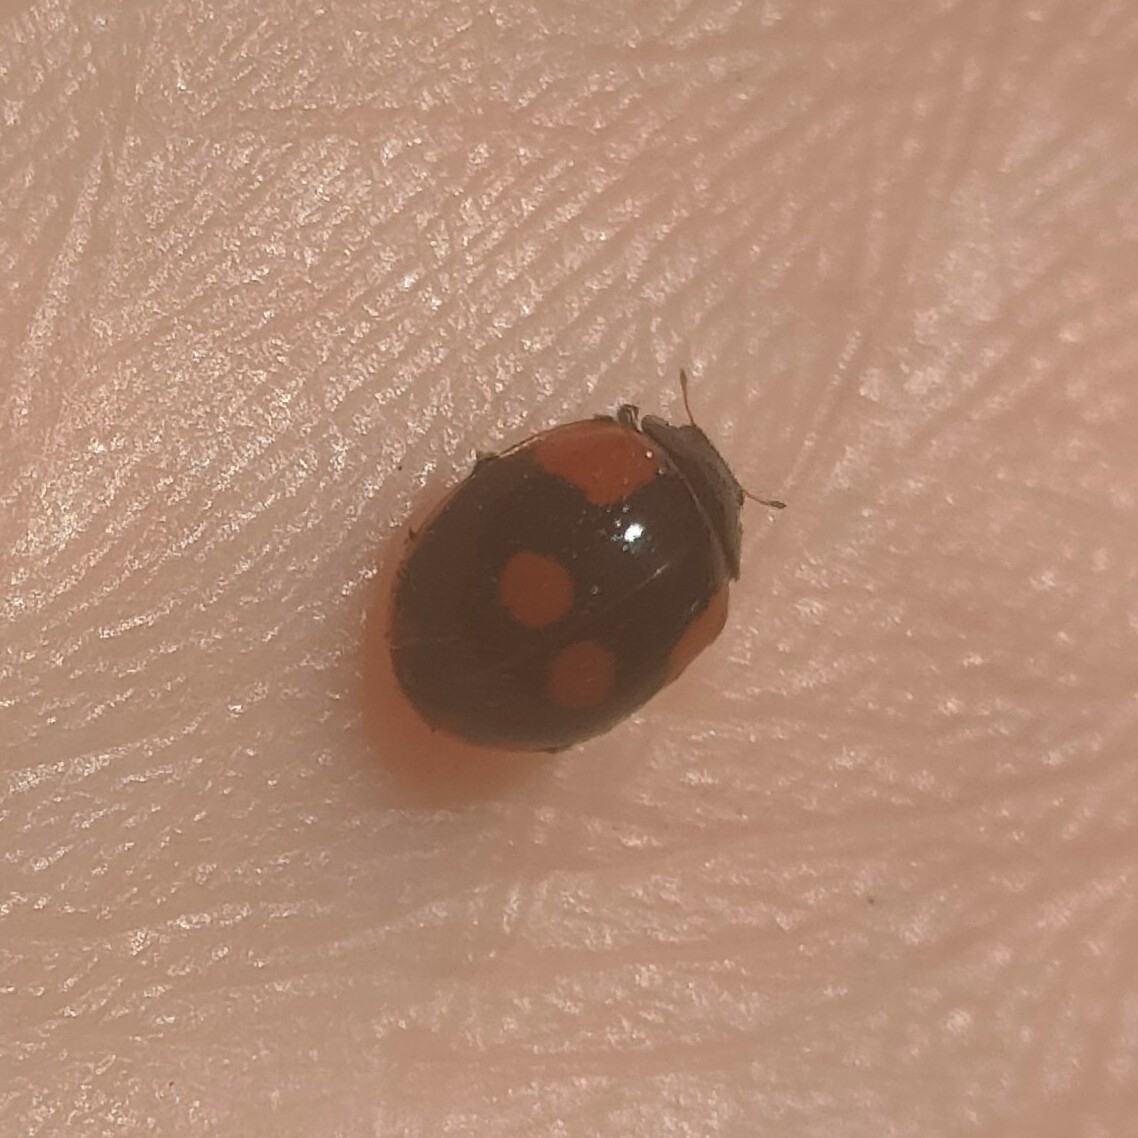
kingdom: Animalia
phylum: Arthropoda
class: Insecta
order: Coleoptera
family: Coccinellidae
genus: Adalia
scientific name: Adalia bipunctata
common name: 2-spot ladybird
